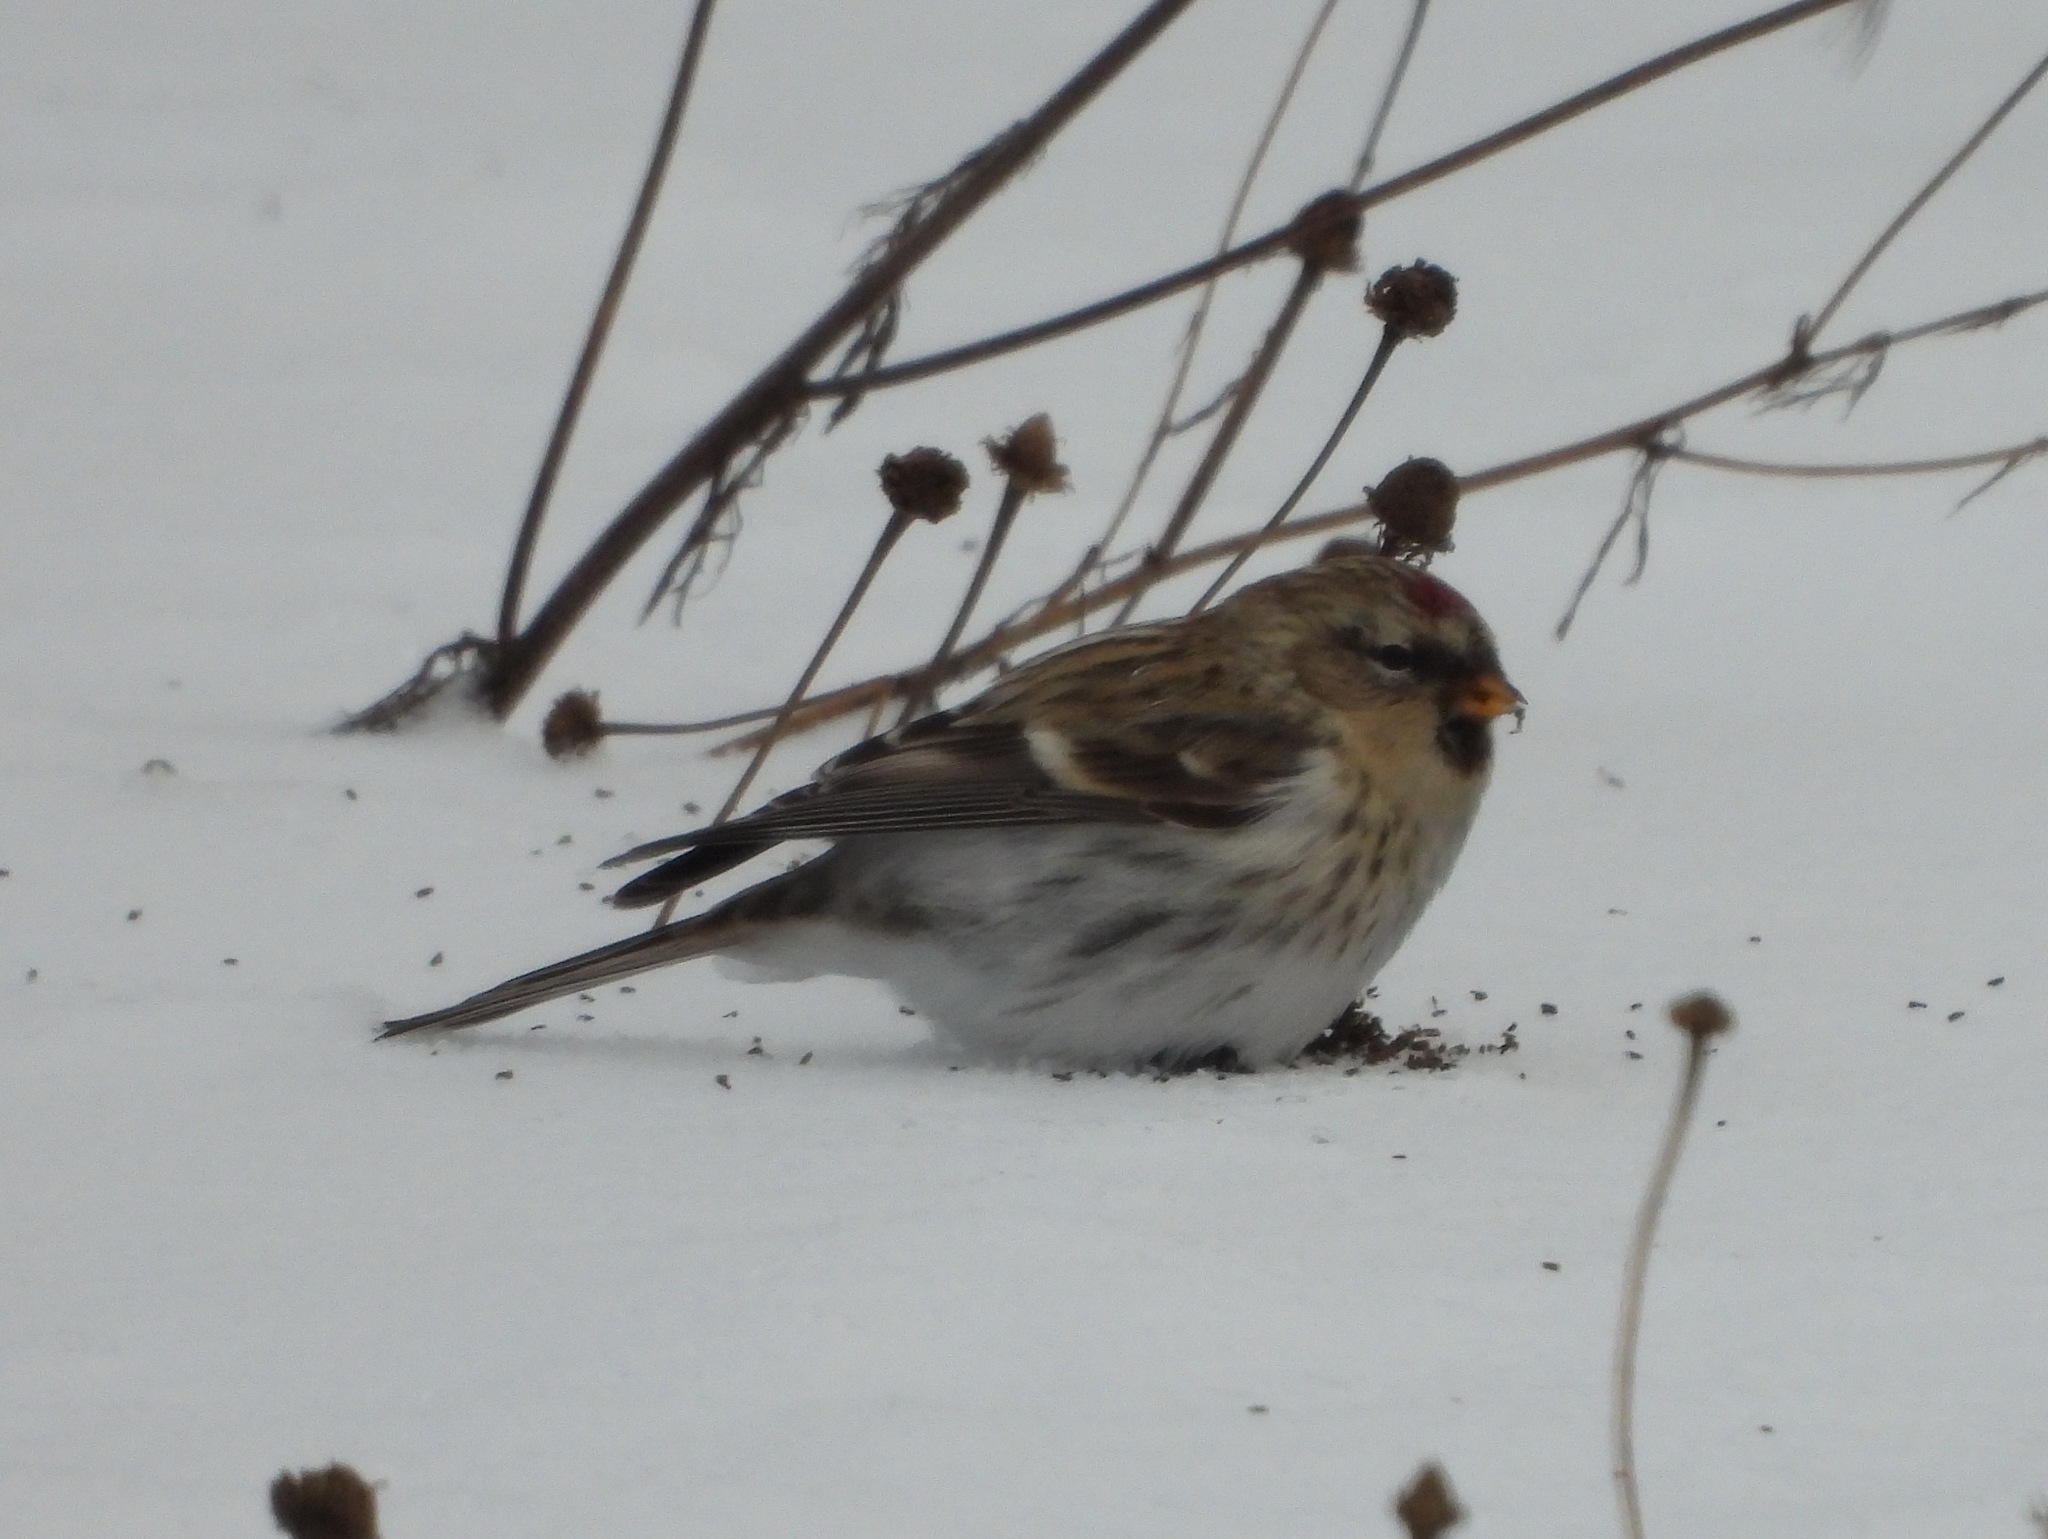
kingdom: Animalia
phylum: Chordata
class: Aves
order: Passeriformes
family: Fringillidae
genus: Acanthis
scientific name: Acanthis flammea
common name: Common redpoll
